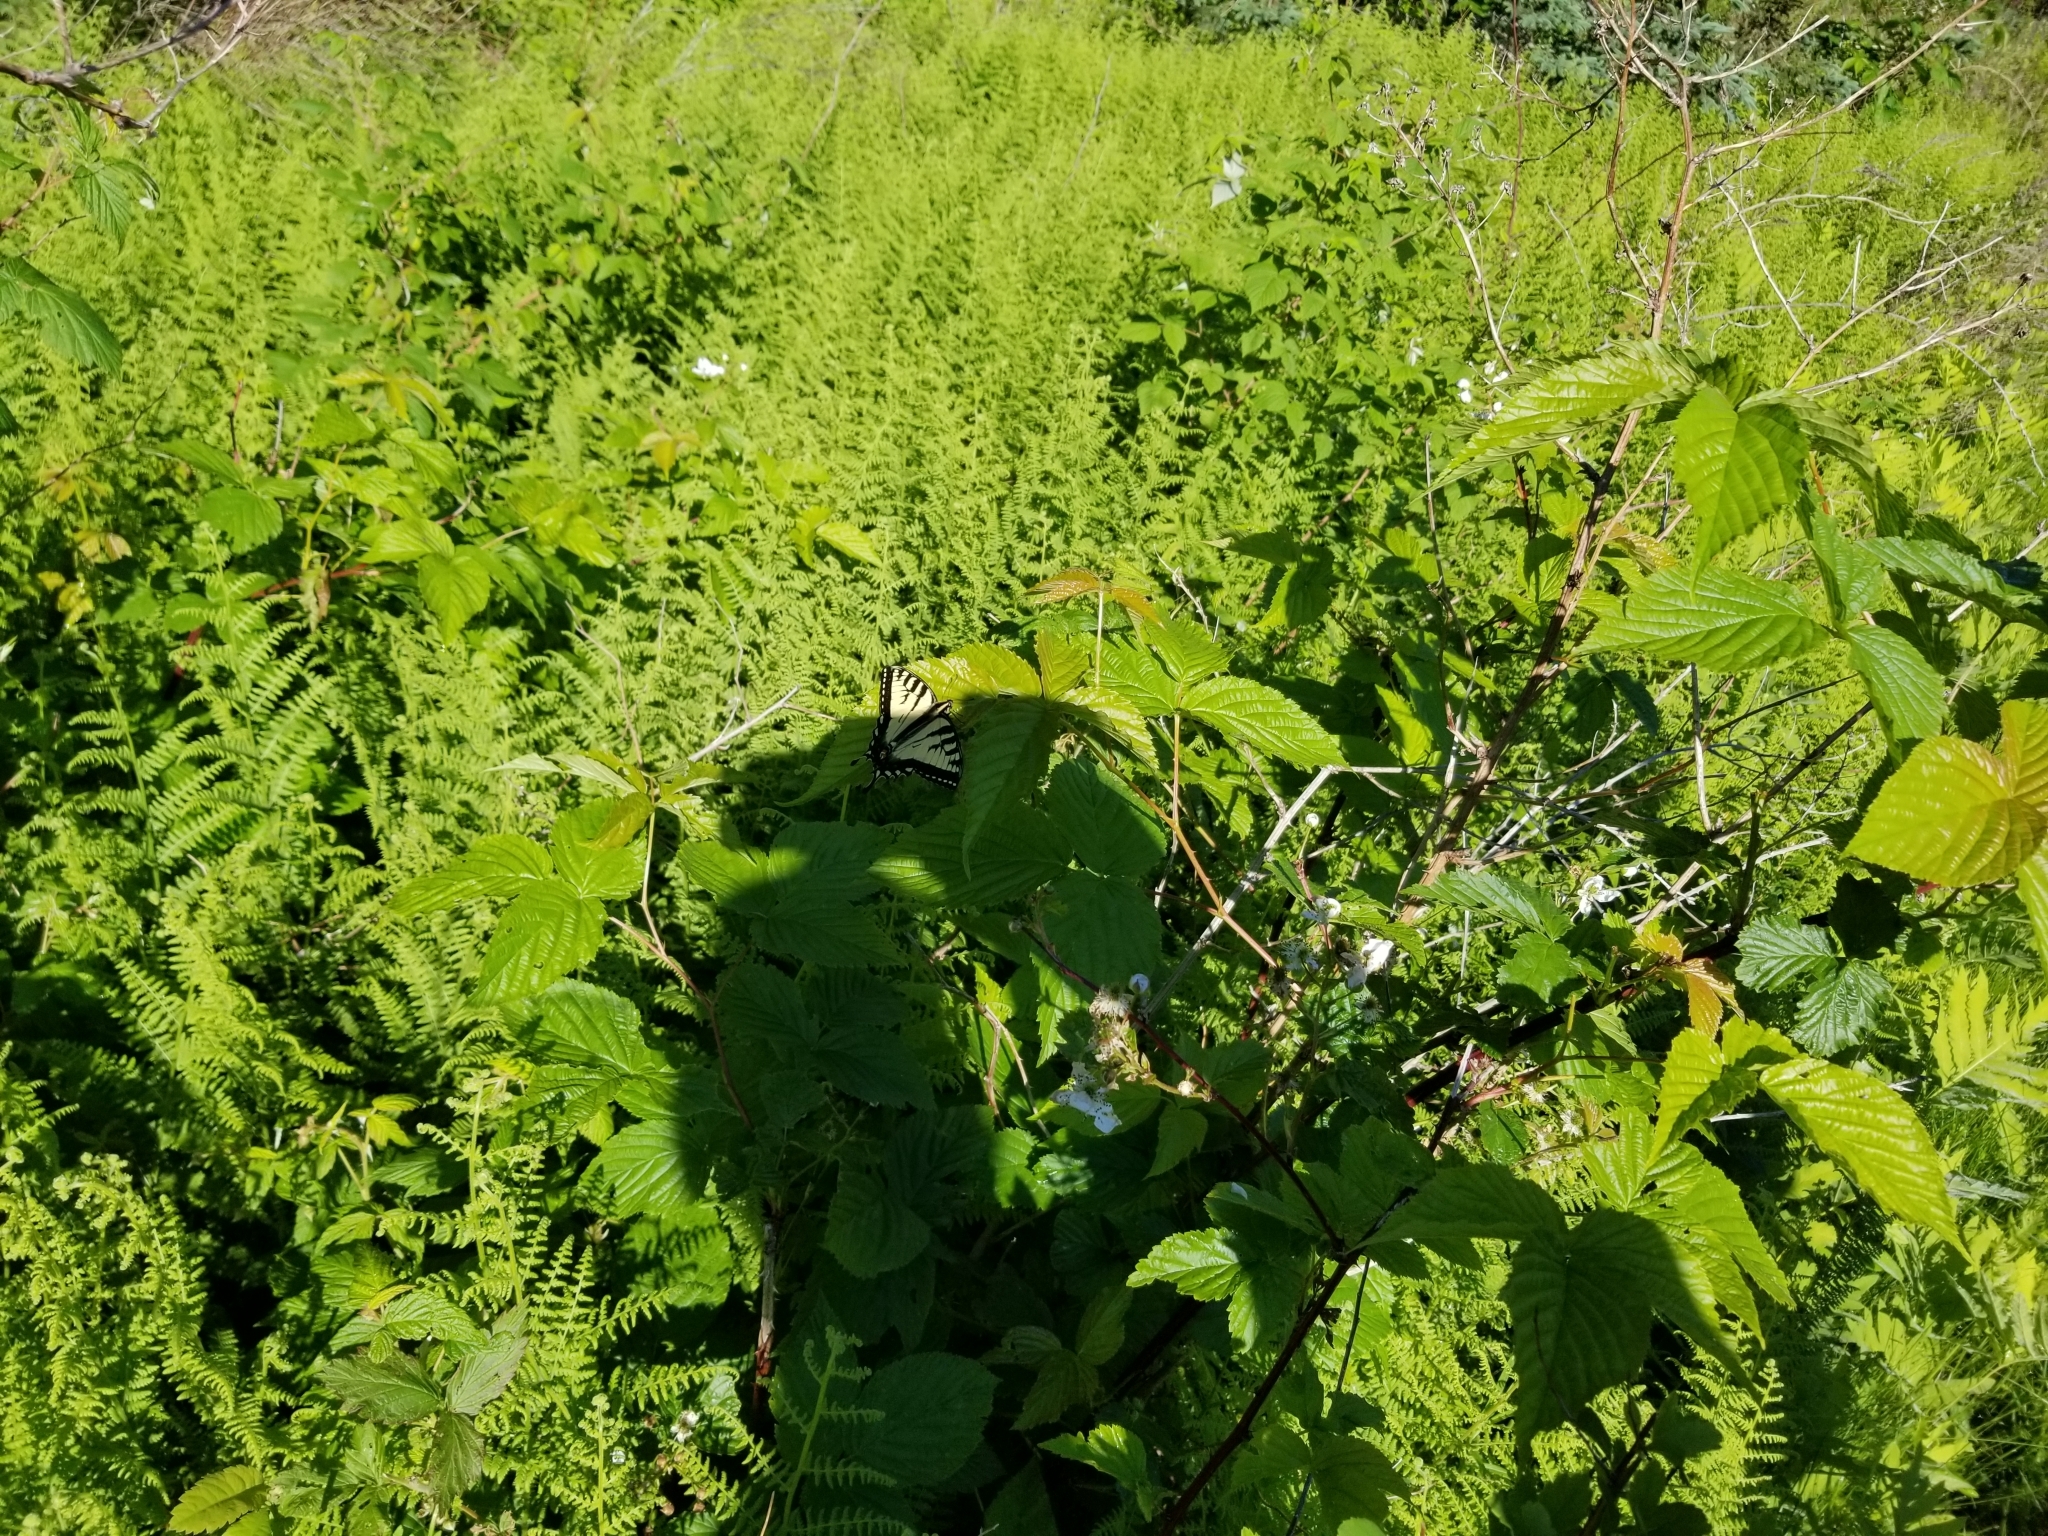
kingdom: Animalia
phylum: Arthropoda
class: Insecta
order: Lepidoptera
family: Papilionidae
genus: Papilio
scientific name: Papilio canadensis
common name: Canadian tiger swallowtail
